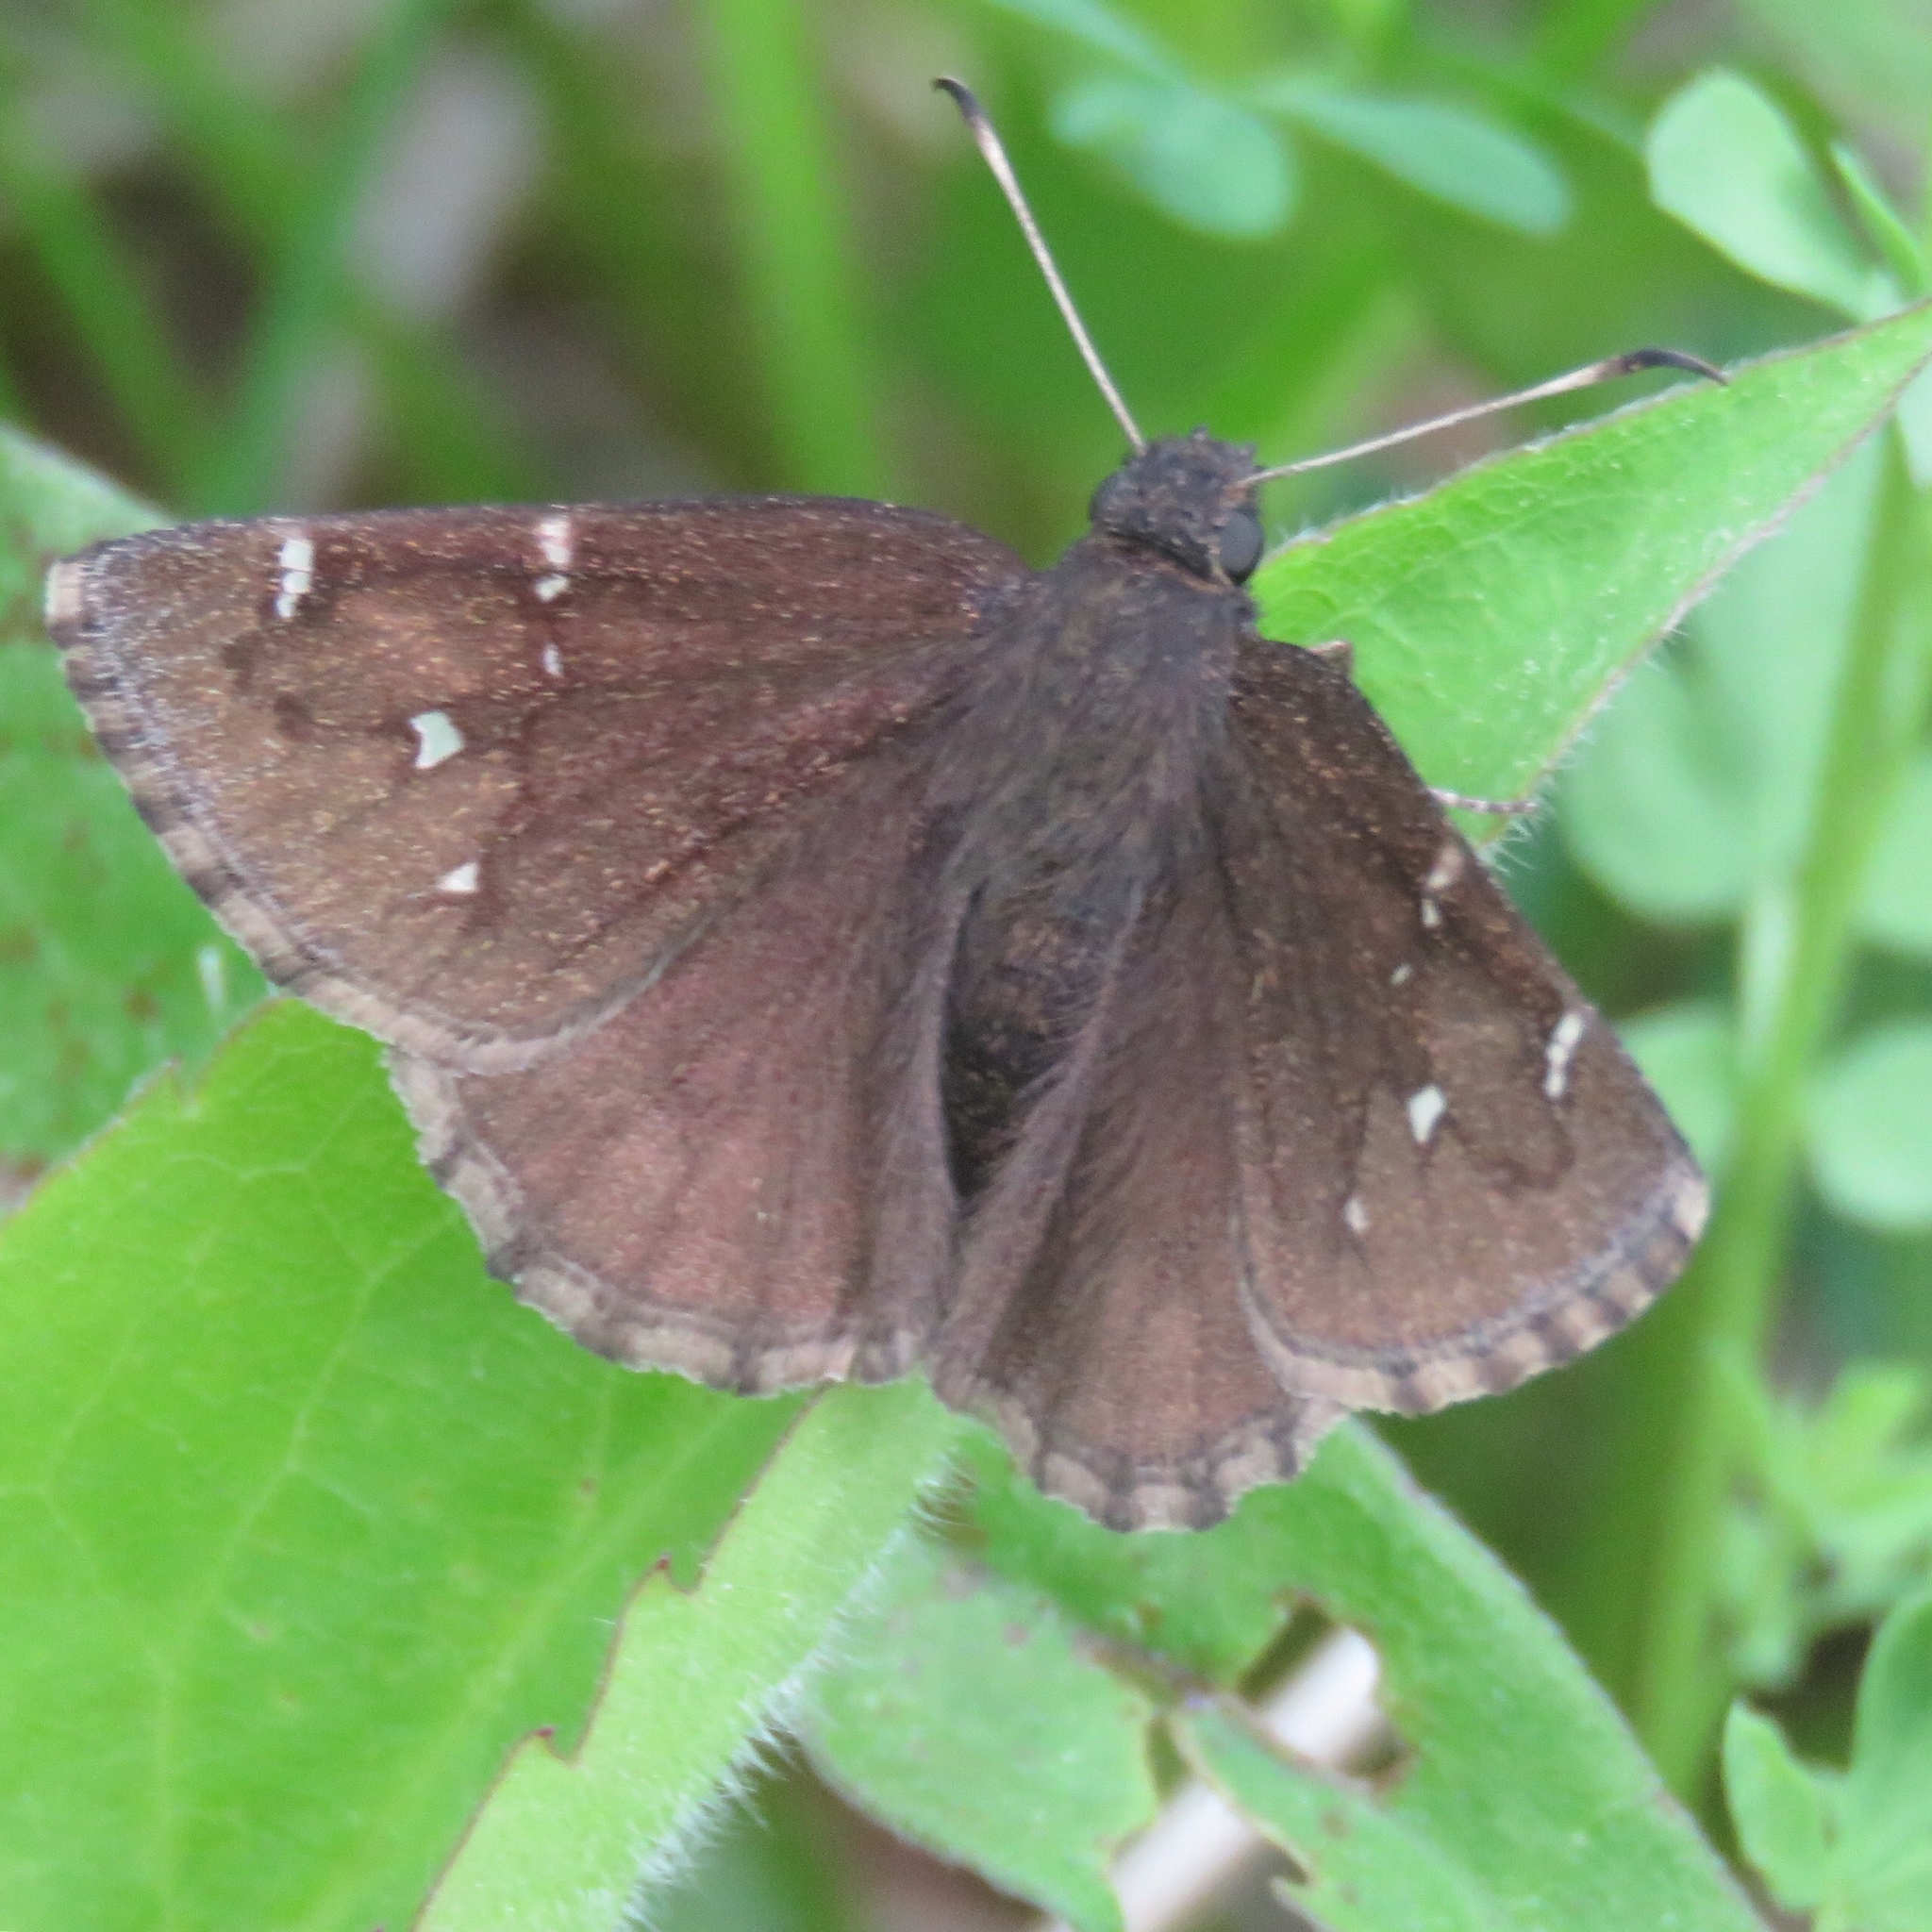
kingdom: Animalia
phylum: Arthropoda
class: Insecta
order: Lepidoptera
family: Hesperiidae
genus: Thorybes
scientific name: Thorybes pylades
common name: Northern cloudywing
